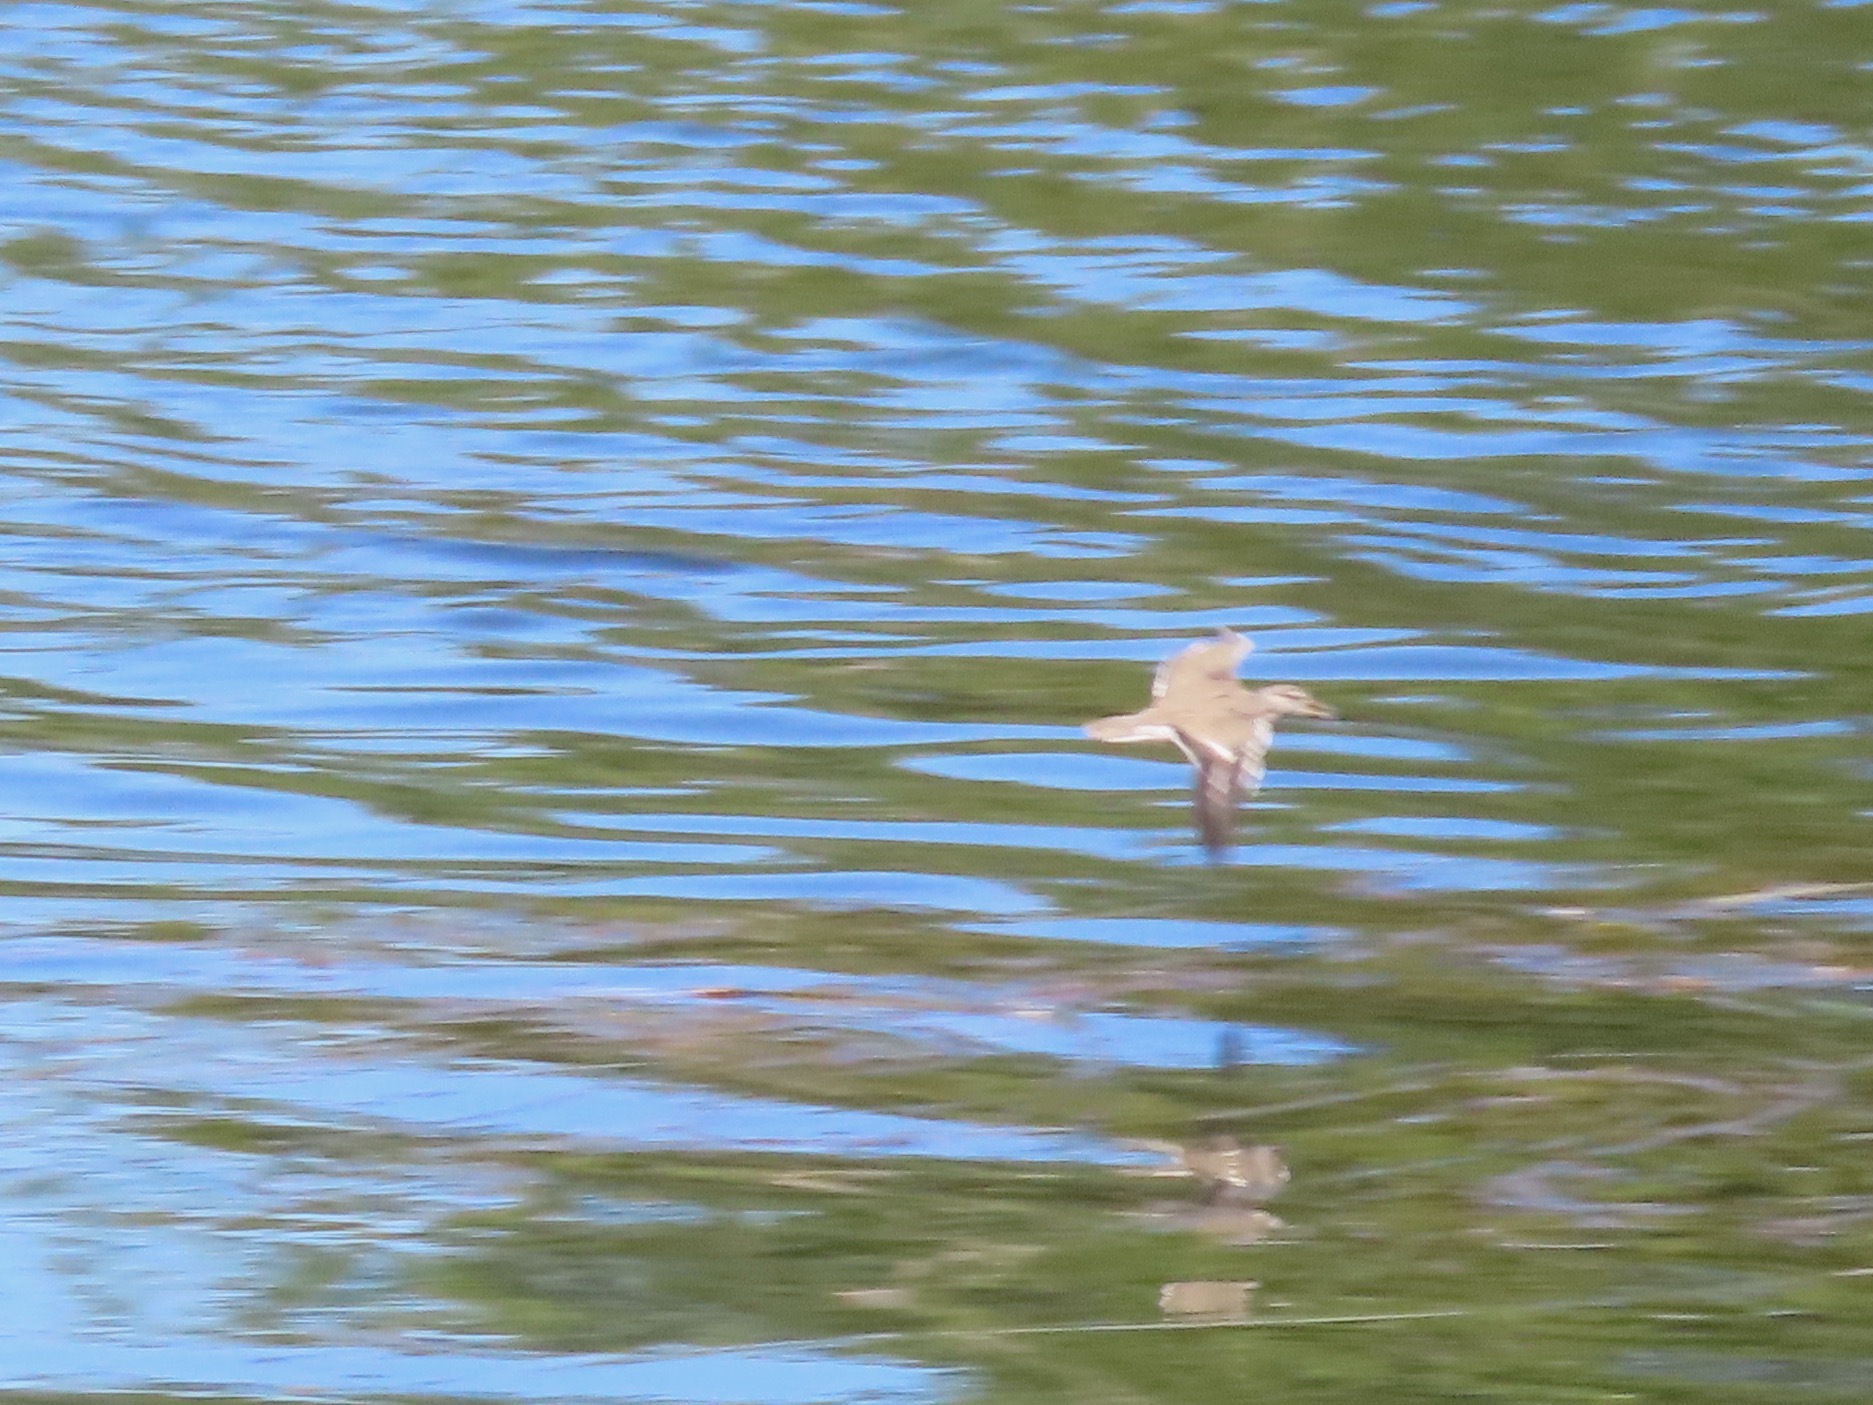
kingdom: Animalia
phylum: Chordata
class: Aves
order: Charadriiformes
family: Scolopacidae
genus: Actitis
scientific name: Actitis macularius
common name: Spotted sandpiper
